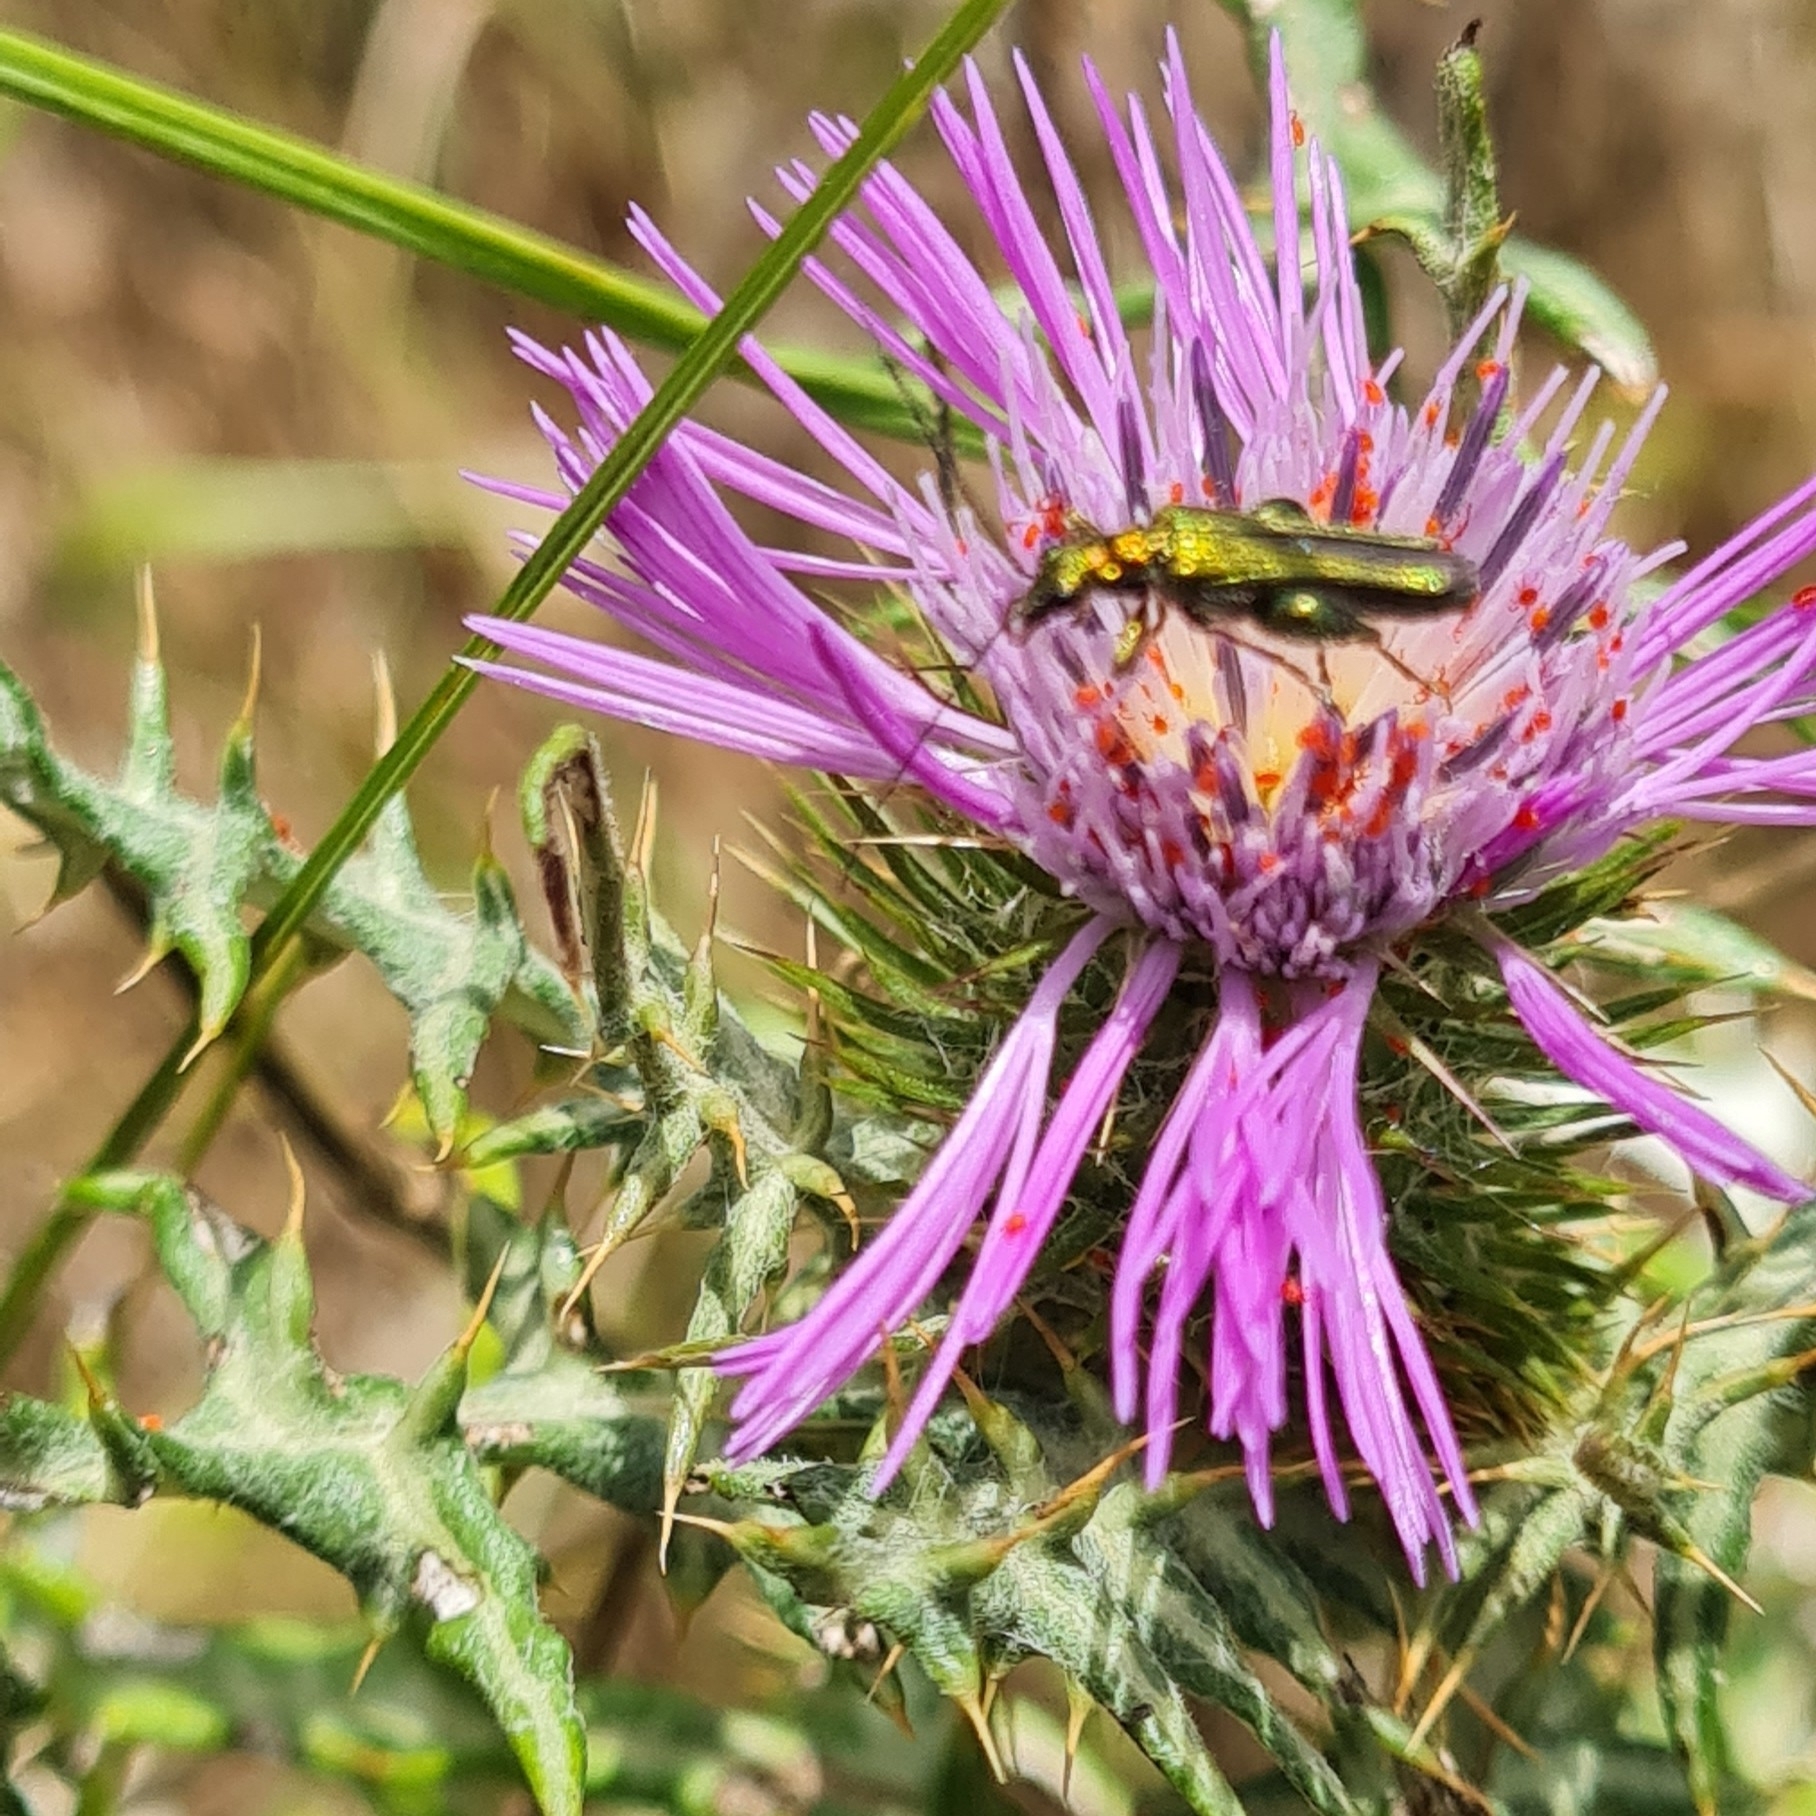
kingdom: Animalia
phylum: Arthropoda
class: Insecta
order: Coleoptera
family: Oedemeridae
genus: Oedemera
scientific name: Oedemera nobilis
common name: Swollen-thighed beetle
